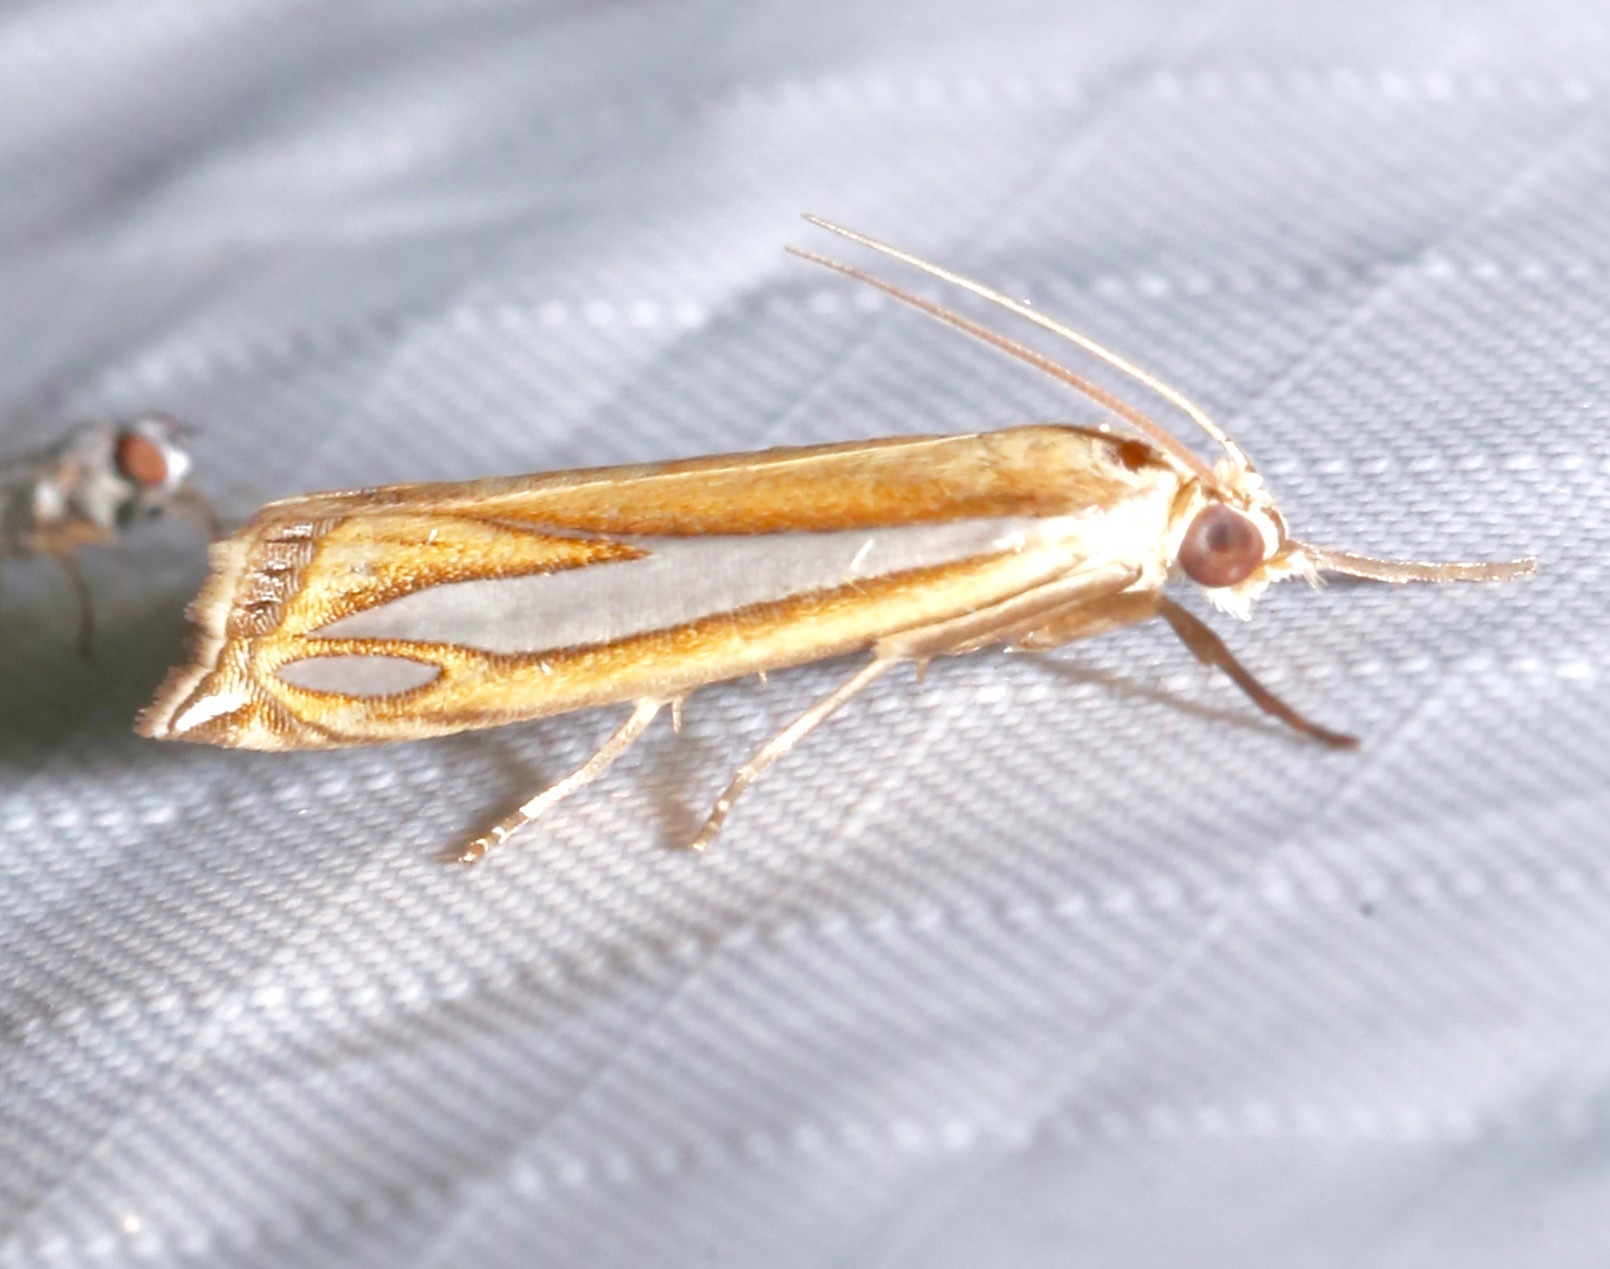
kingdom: Animalia
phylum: Arthropoda
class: Insecta
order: Lepidoptera
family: Crambidae
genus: Crambus
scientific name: Crambus satrapellus
